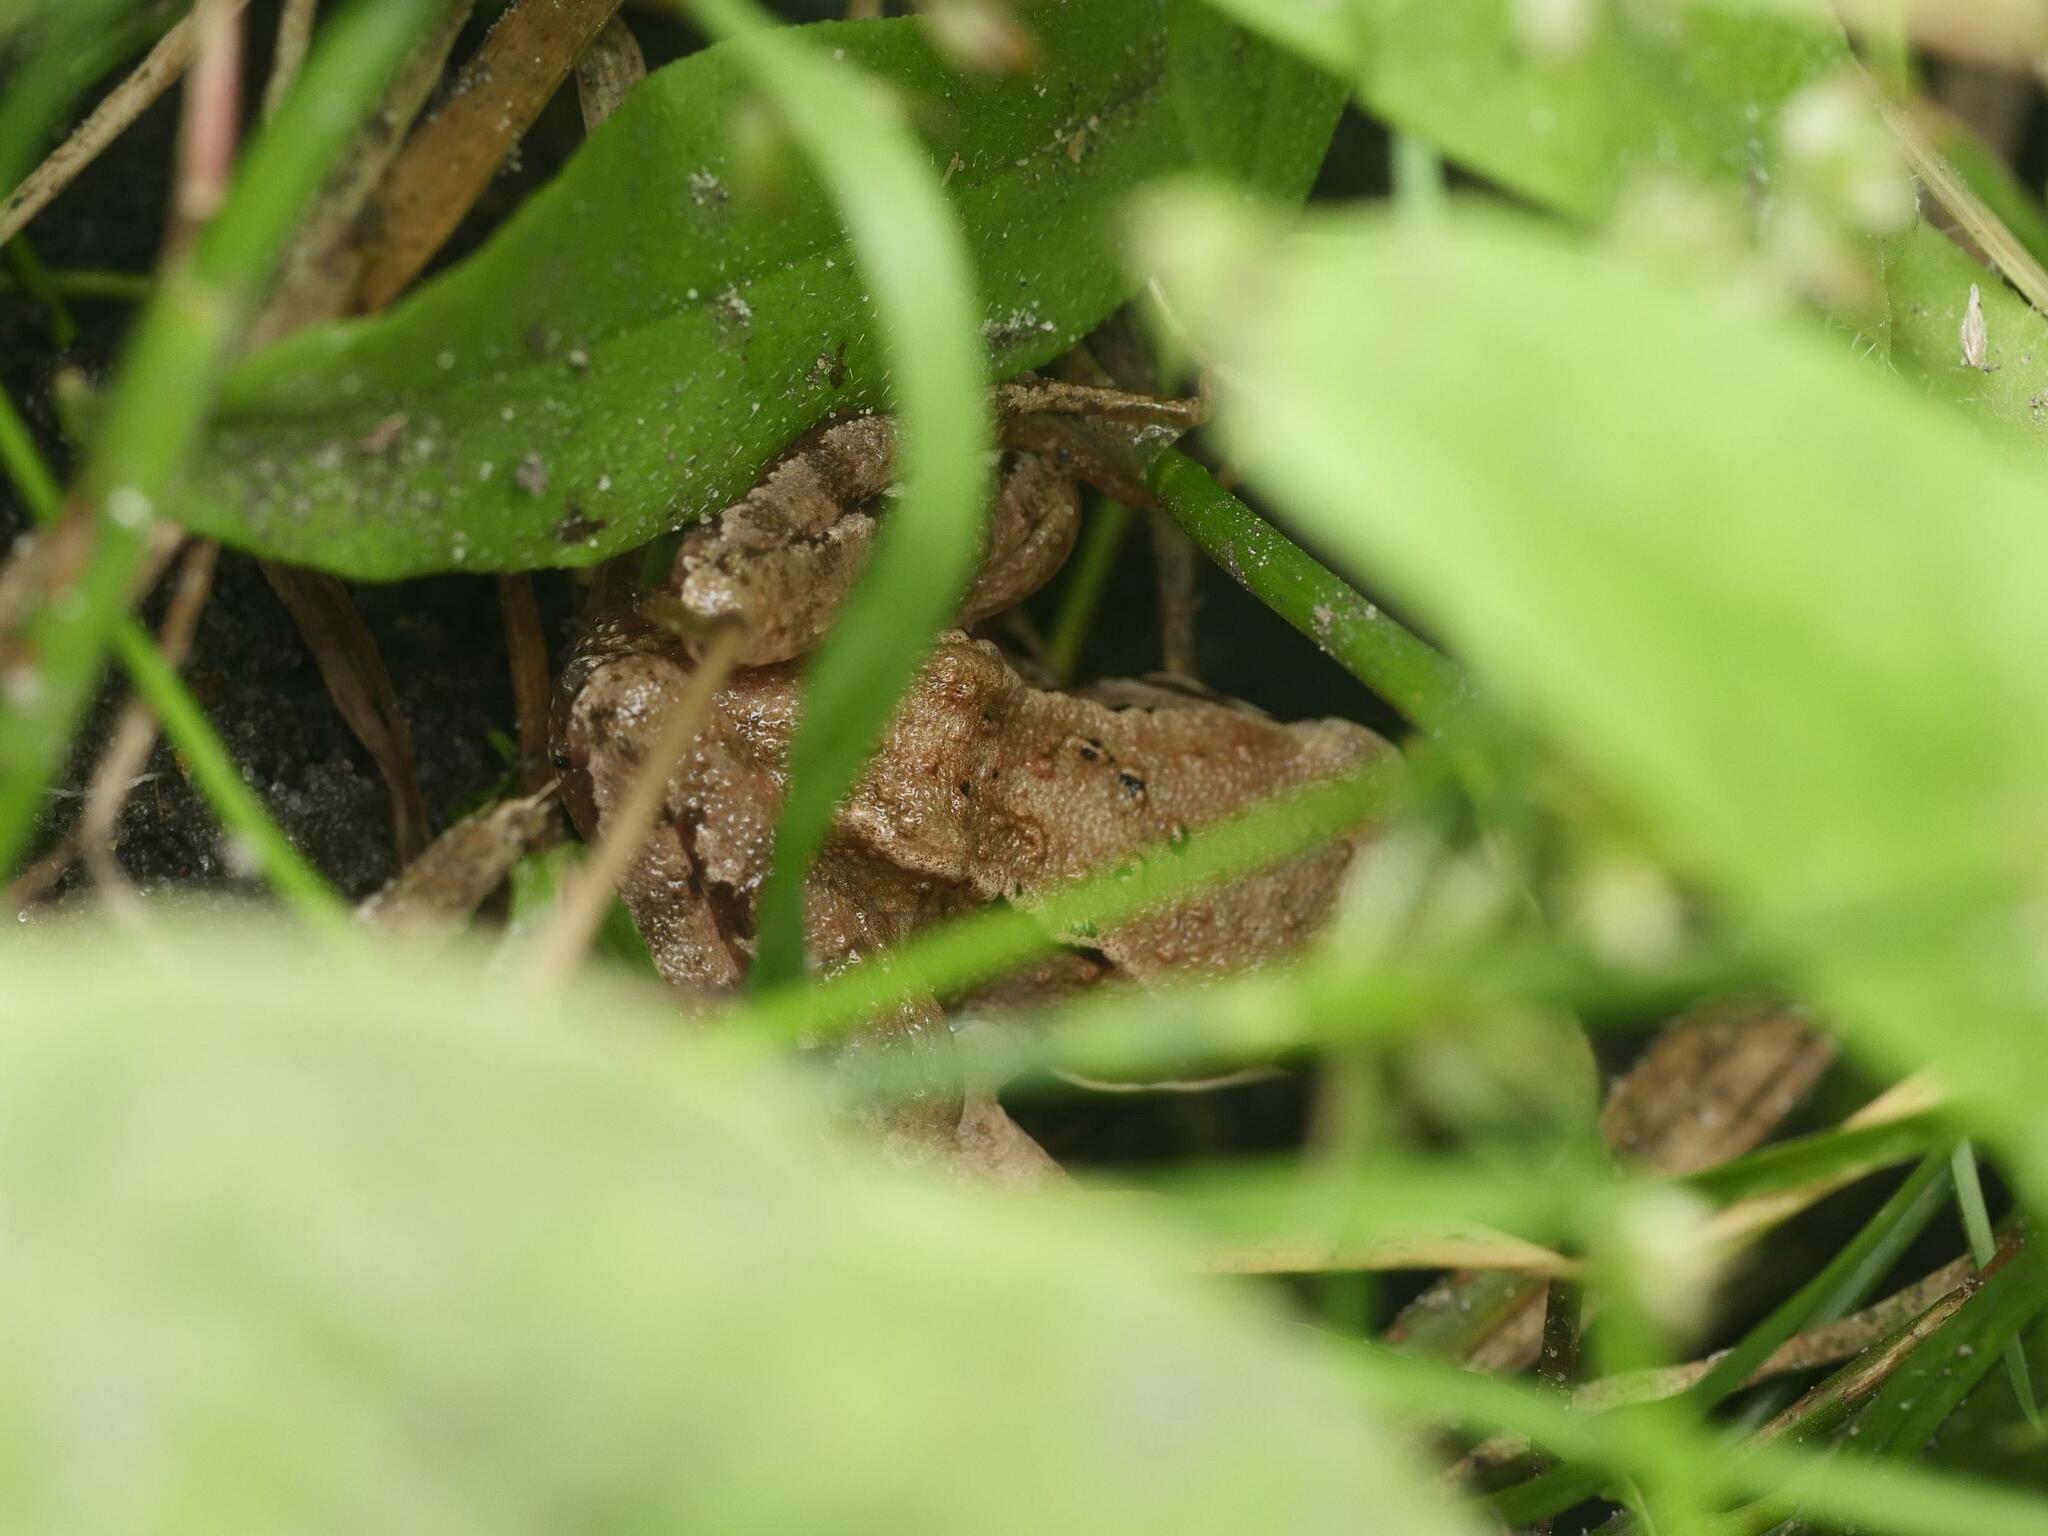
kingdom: Animalia
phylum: Chordata
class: Amphibia
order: Anura
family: Ranidae
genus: Rana
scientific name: Rana temporaria
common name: Common frog
